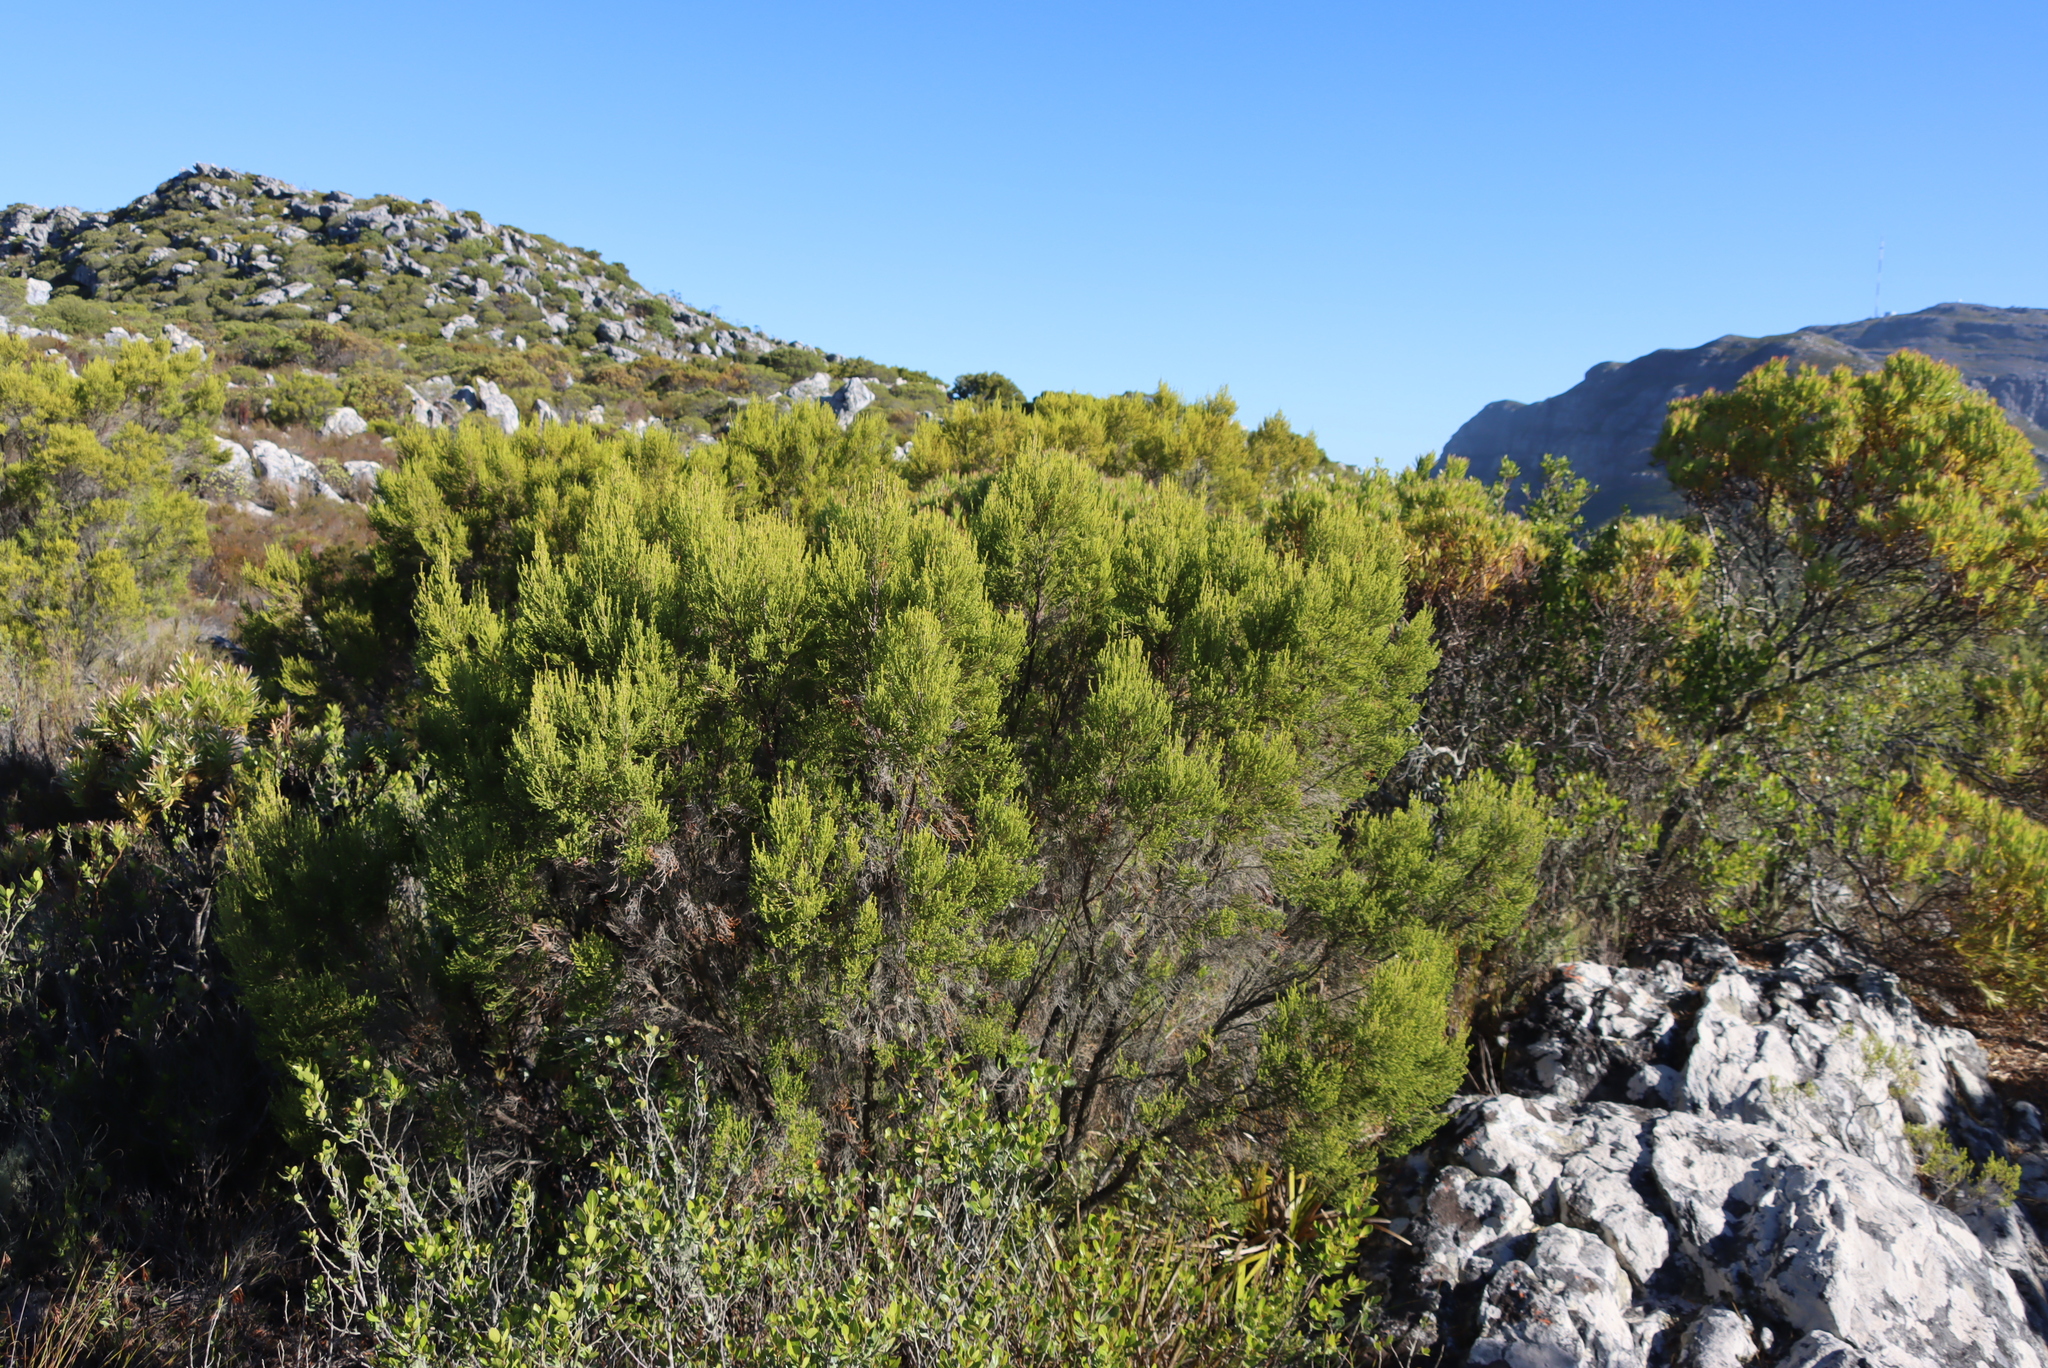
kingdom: Plantae
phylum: Tracheophyta
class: Magnoliopsida
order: Ericales
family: Ericaceae
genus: Erica
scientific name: Erica tristis
